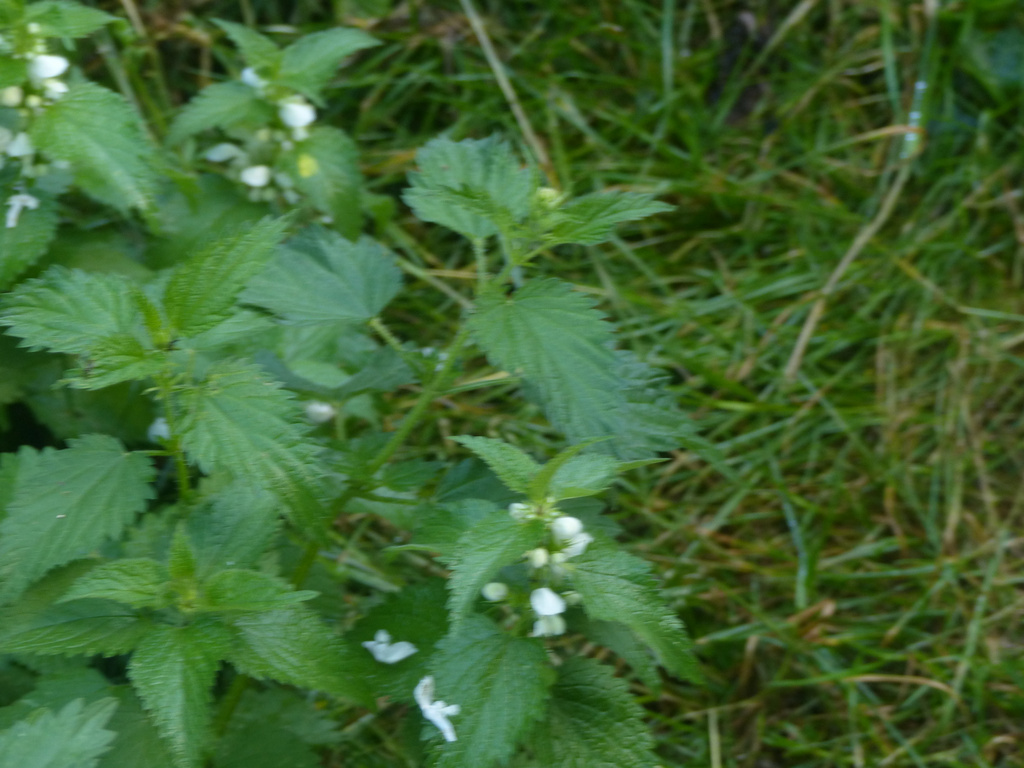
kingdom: Plantae
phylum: Tracheophyta
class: Magnoliopsida
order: Lamiales
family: Lamiaceae
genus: Lamium
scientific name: Lamium album
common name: White dead-nettle
